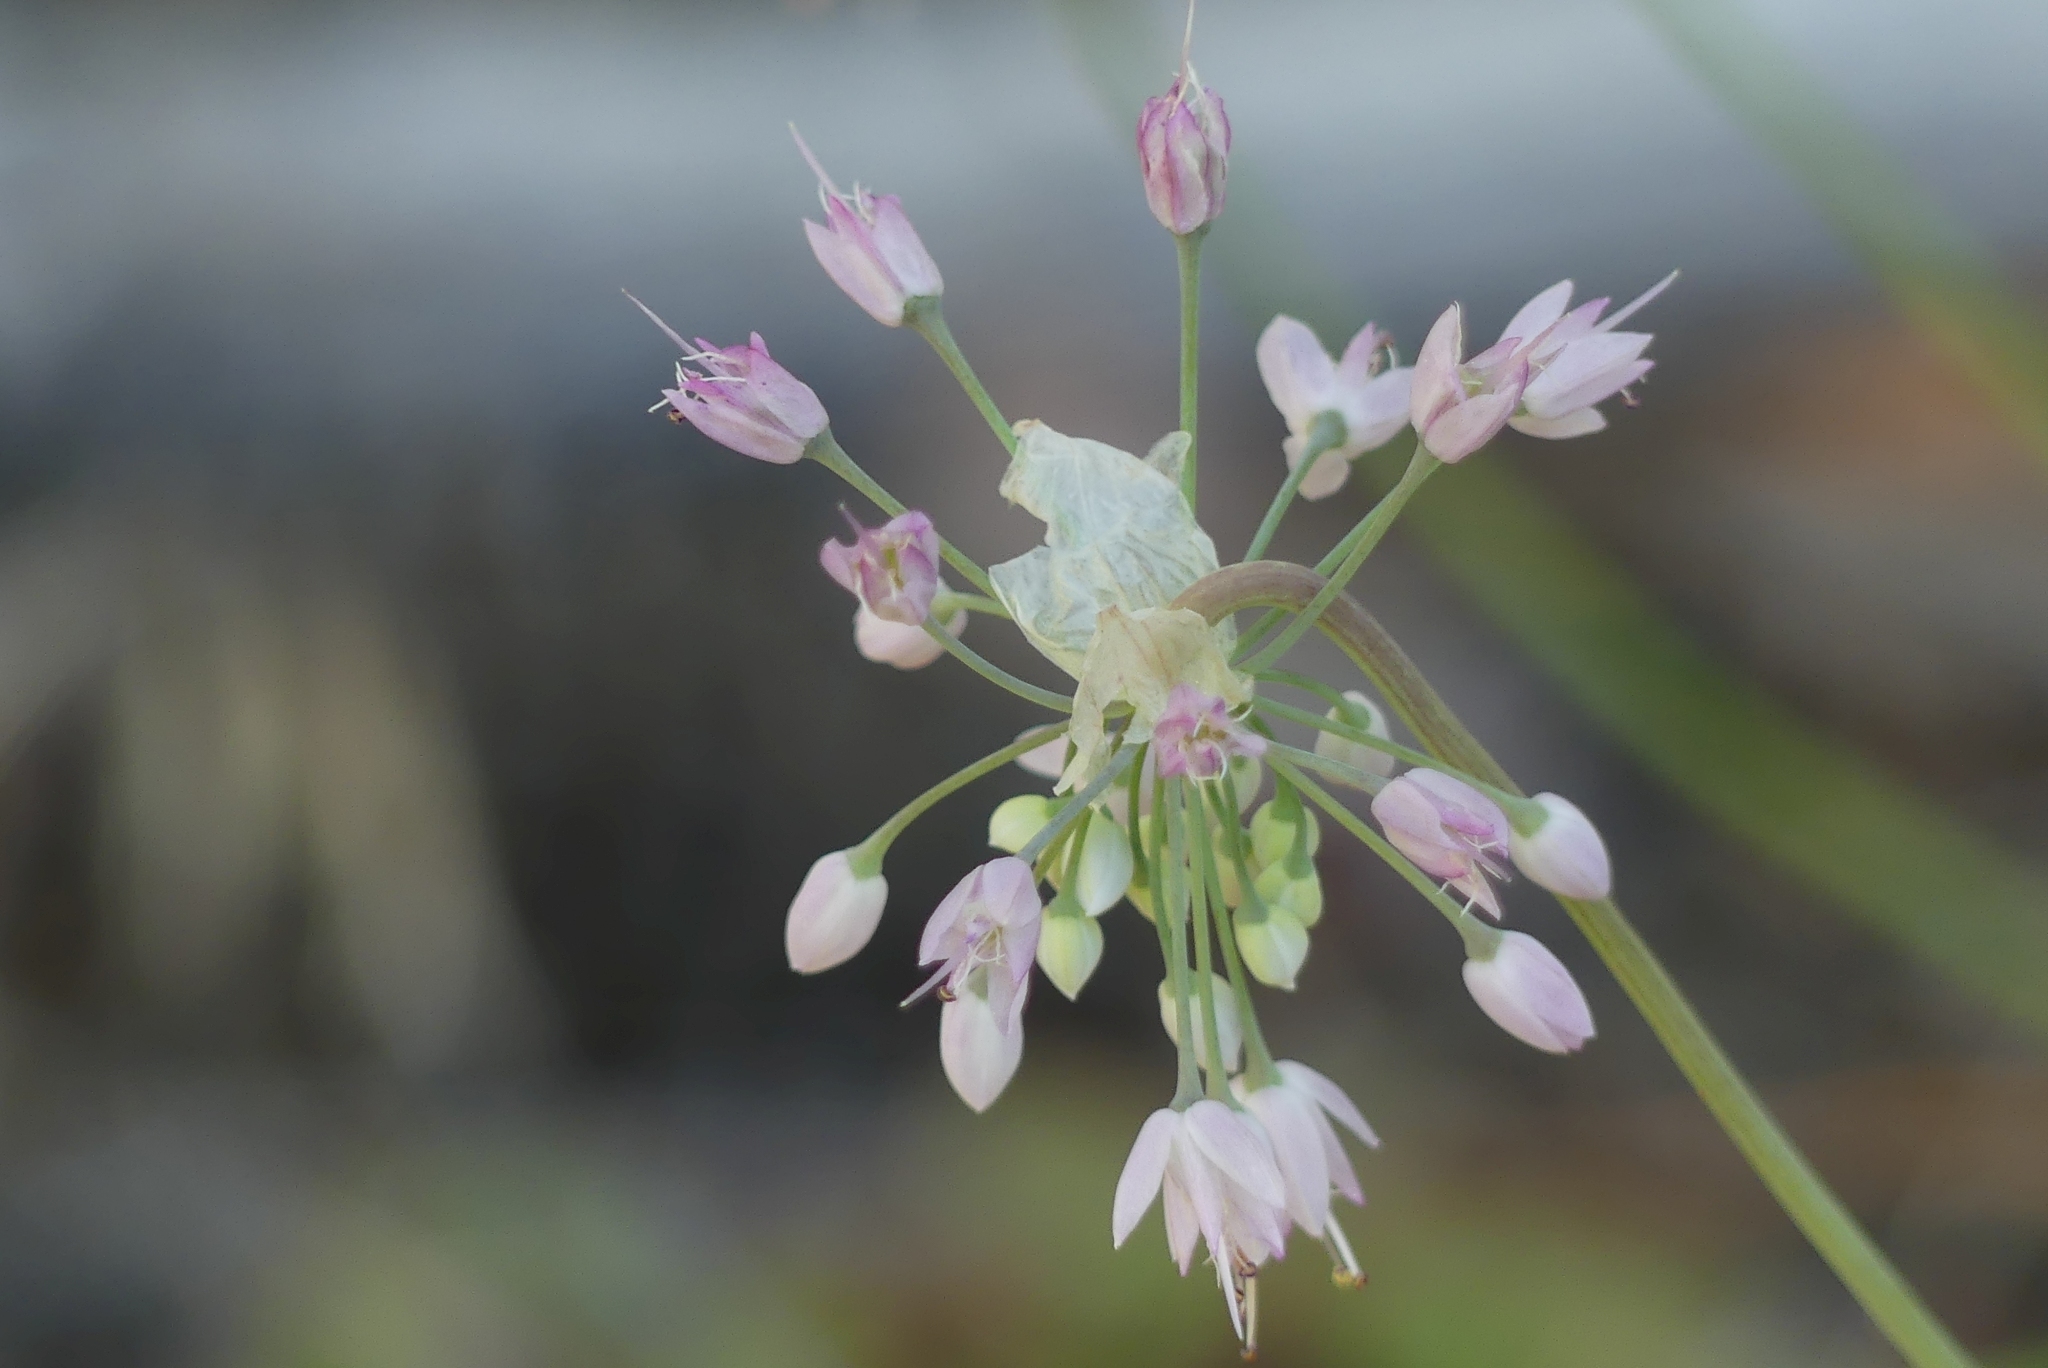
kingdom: Plantae
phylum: Tracheophyta
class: Liliopsida
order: Asparagales
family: Amaryllidaceae
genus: Allium
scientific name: Allium cernuum
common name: Nodding onion
